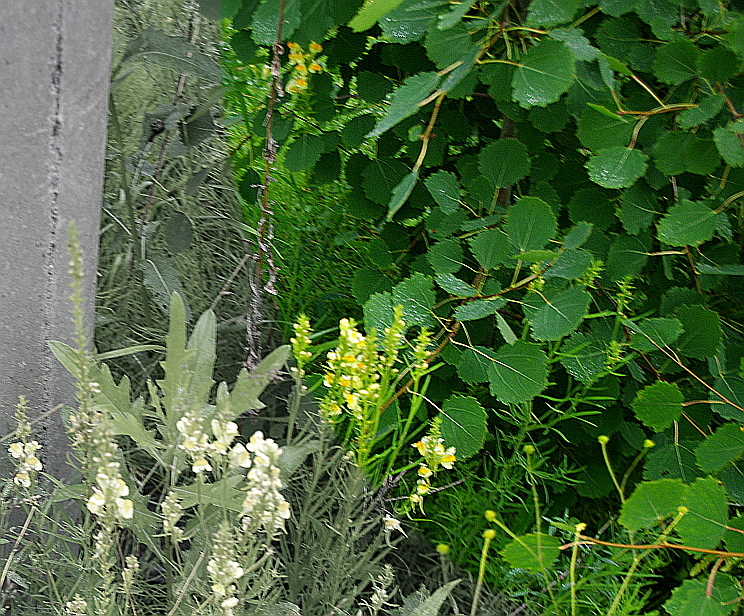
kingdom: Plantae
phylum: Tracheophyta
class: Magnoliopsida
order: Malpighiales
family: Salicaceae
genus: Populus
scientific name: Populus tremula
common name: European aspen
